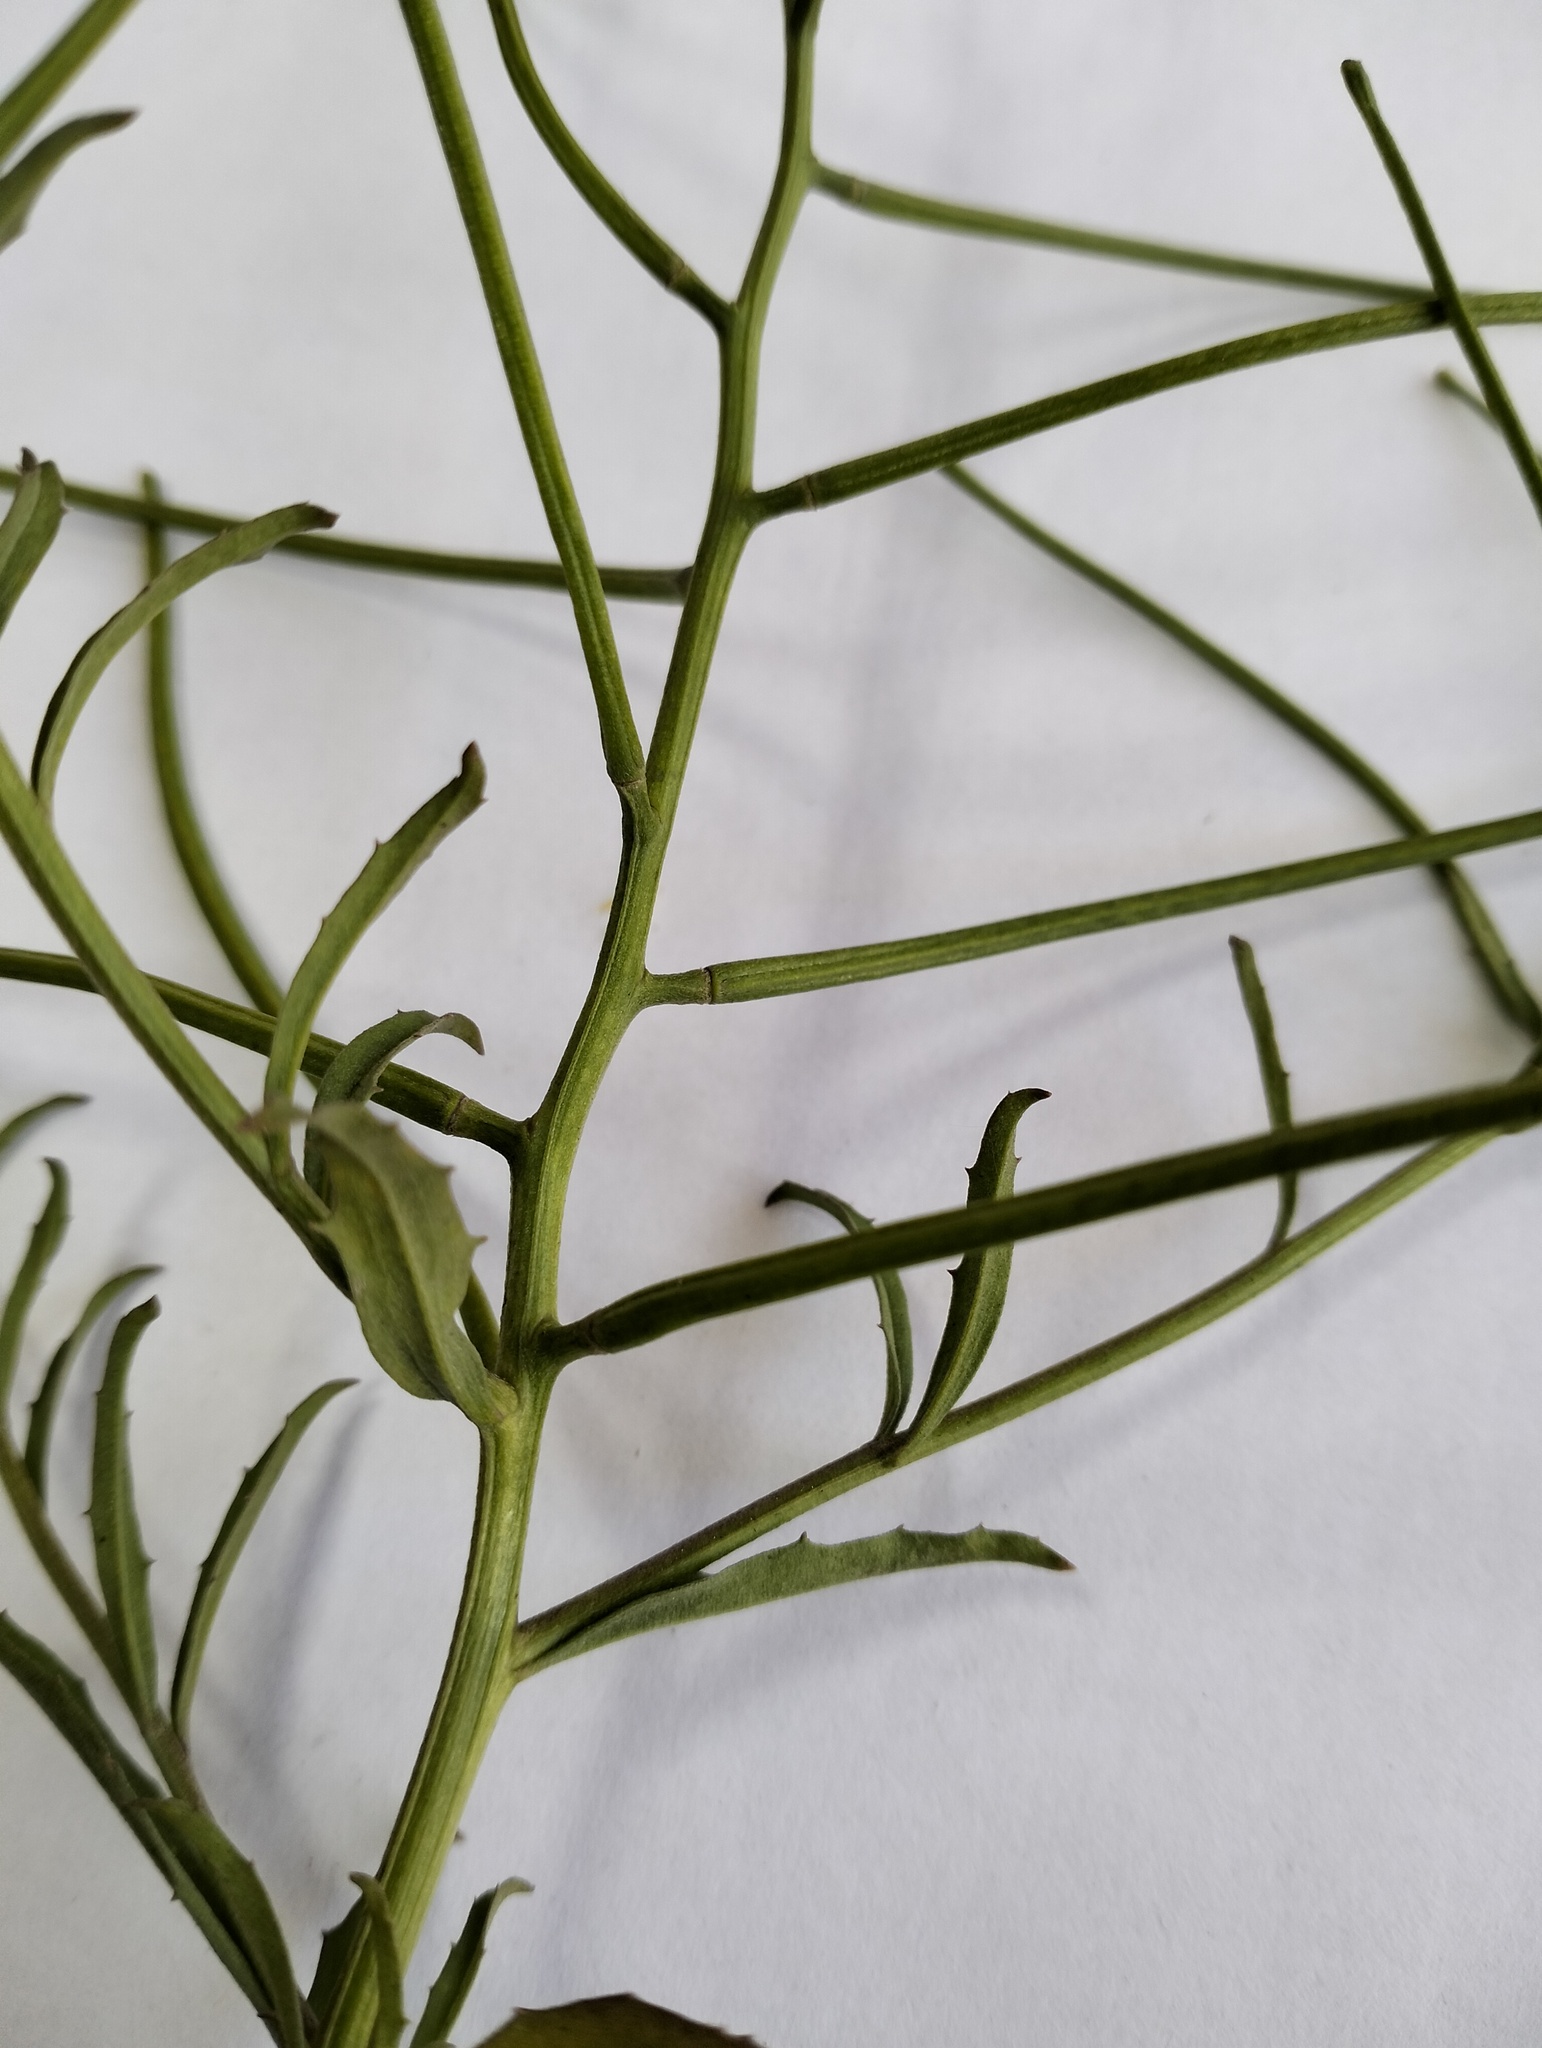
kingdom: Plantae
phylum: Tracheophyta
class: Magnoliopsida
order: Brassicales
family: Brassicaceae
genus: Erysimum
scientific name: Erysimum repandum
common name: Spreading wallflower
